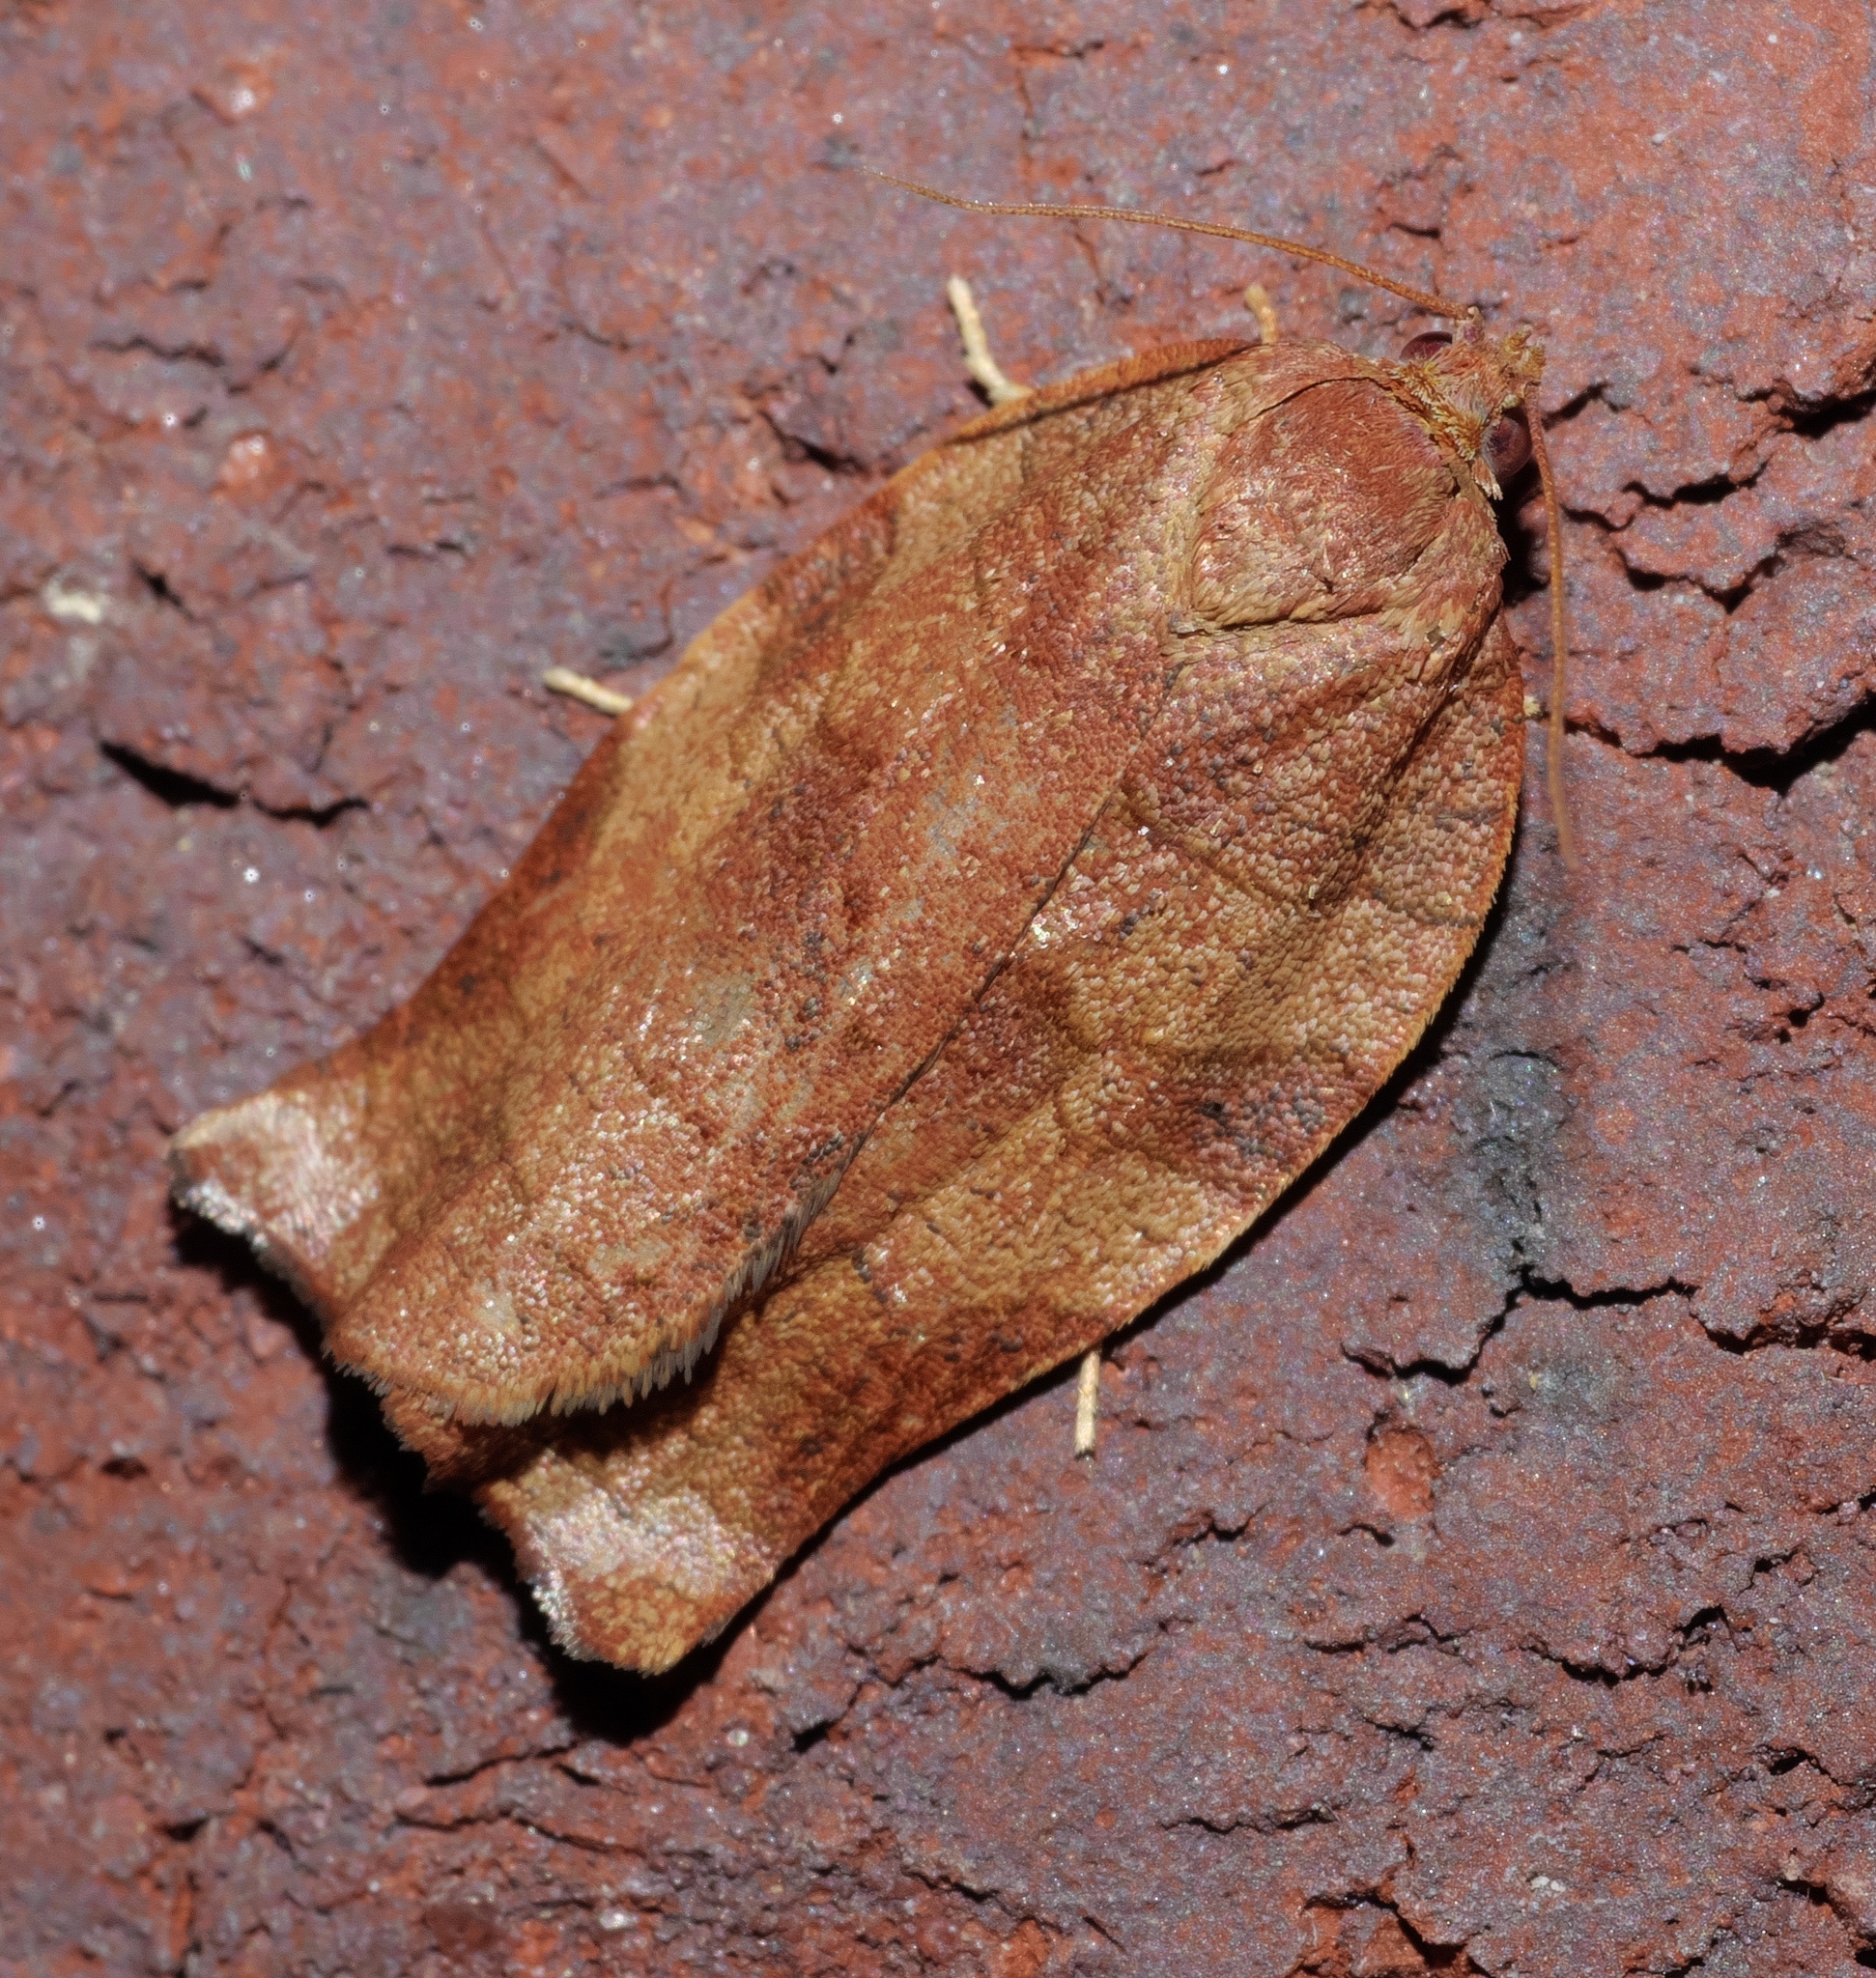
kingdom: Animalia
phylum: Arthropoda
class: Insecta
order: Lepidoptera
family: Tortricidae
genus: Choristoneura
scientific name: Choristoneura rosaceana
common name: Oblique-banded leafroller moth
